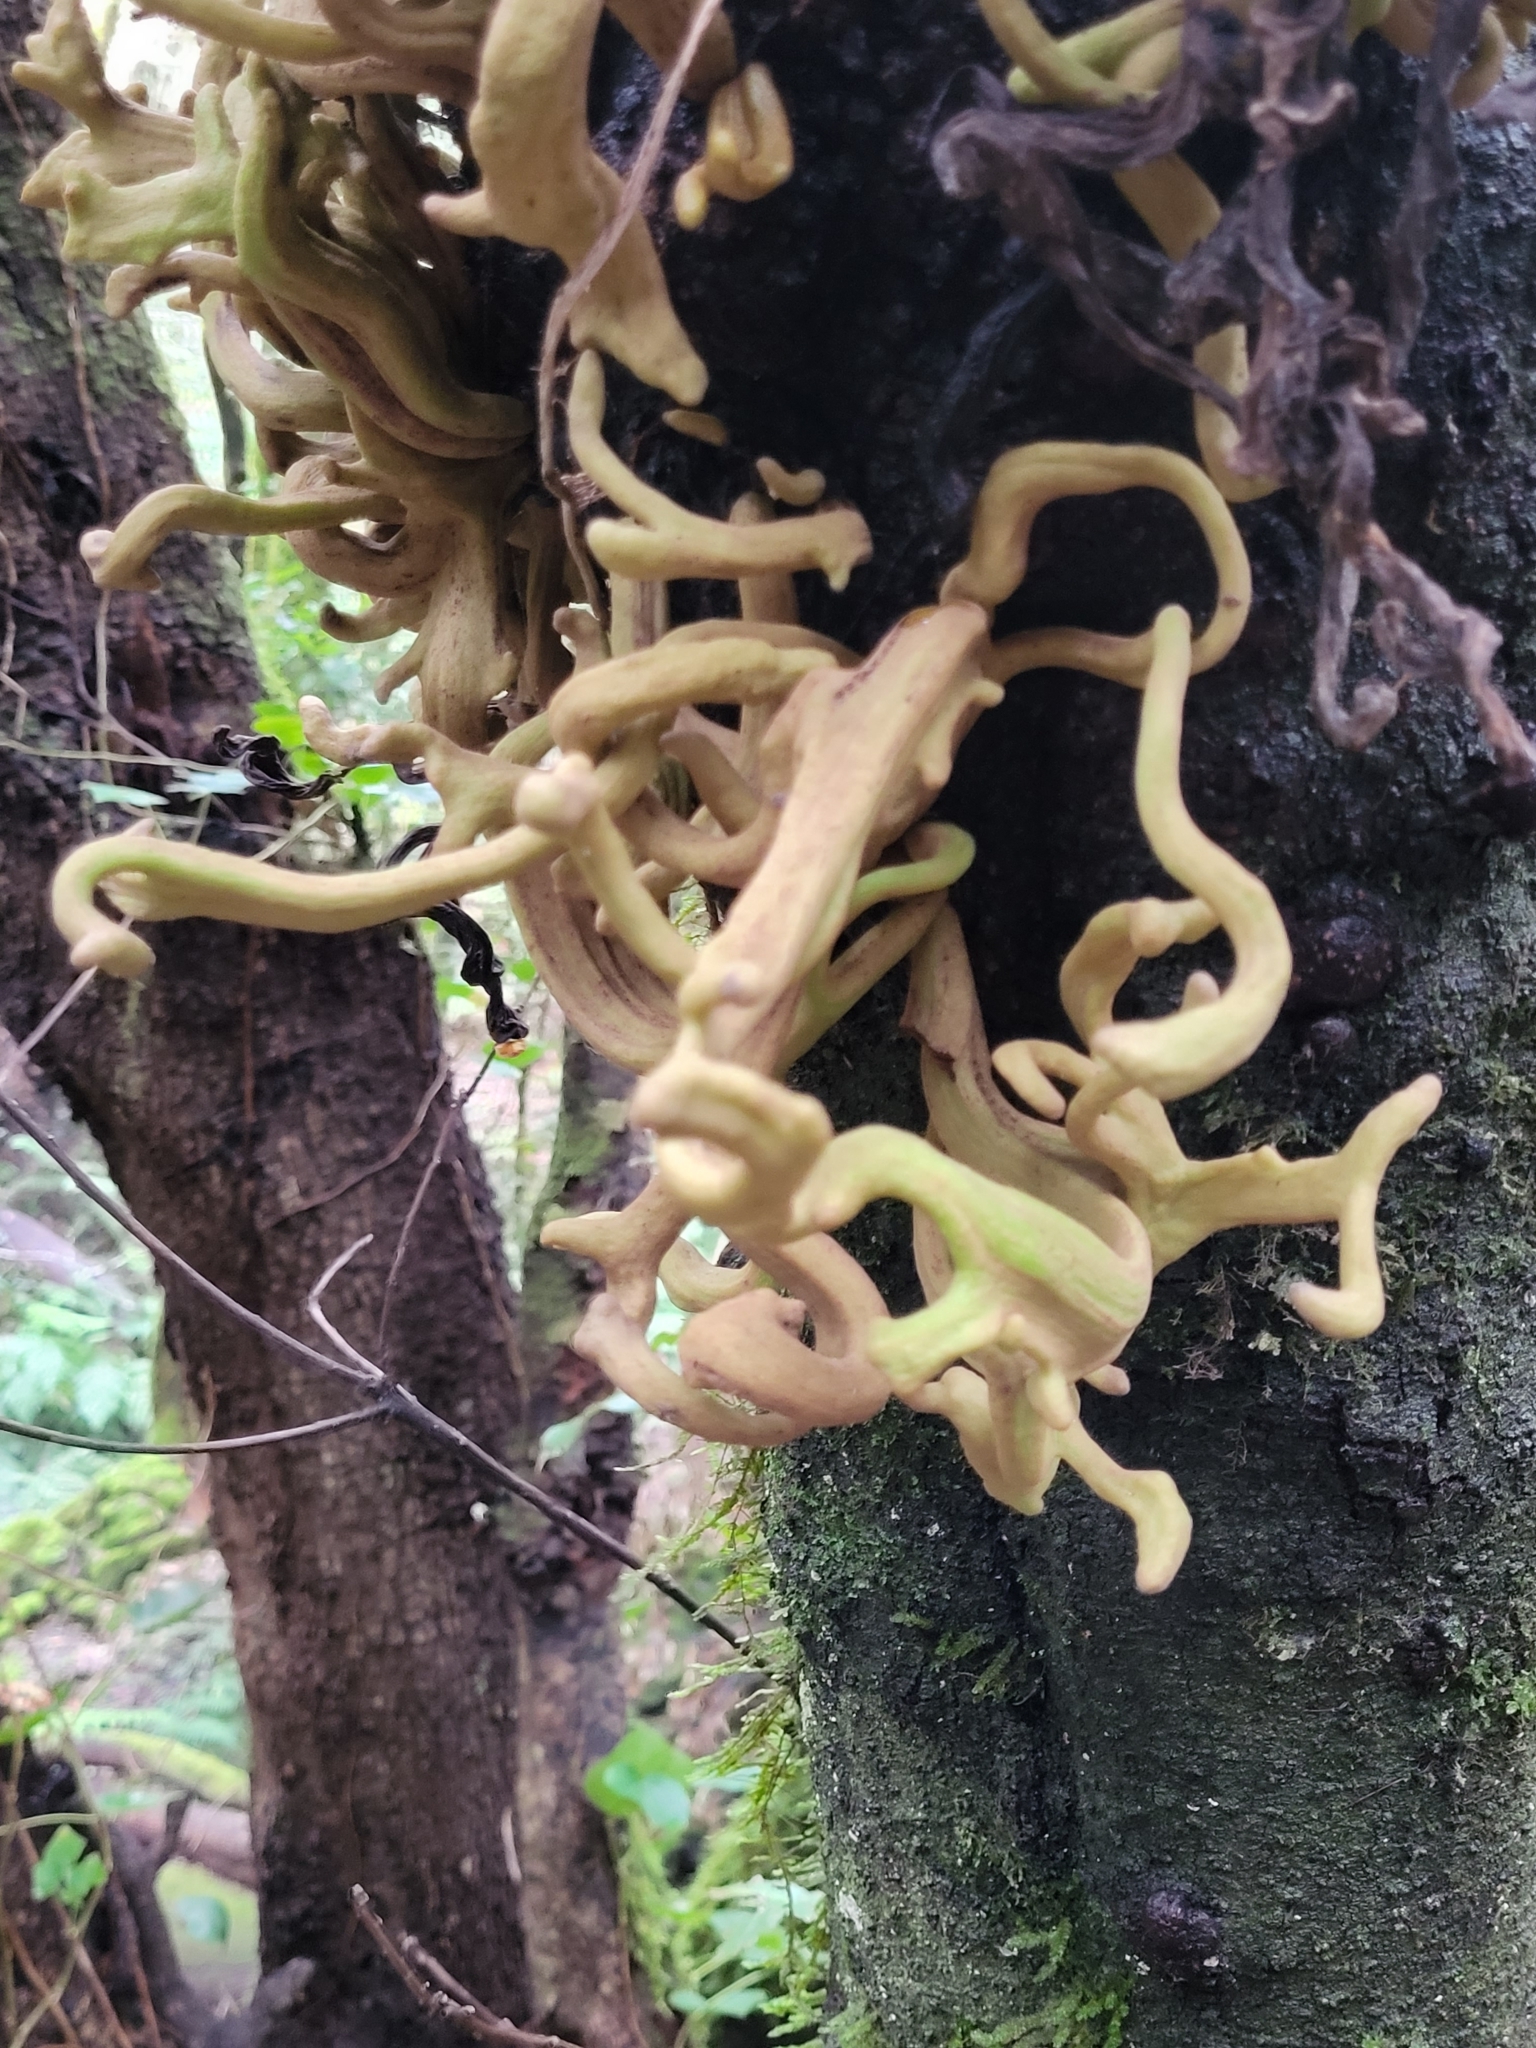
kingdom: Fungi
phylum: Basidiomycota
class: Exobasidiomycetes
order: Exobasidiales
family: Laurobasidiaceae
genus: Laurobasidium
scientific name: Laurobasidium lauri
